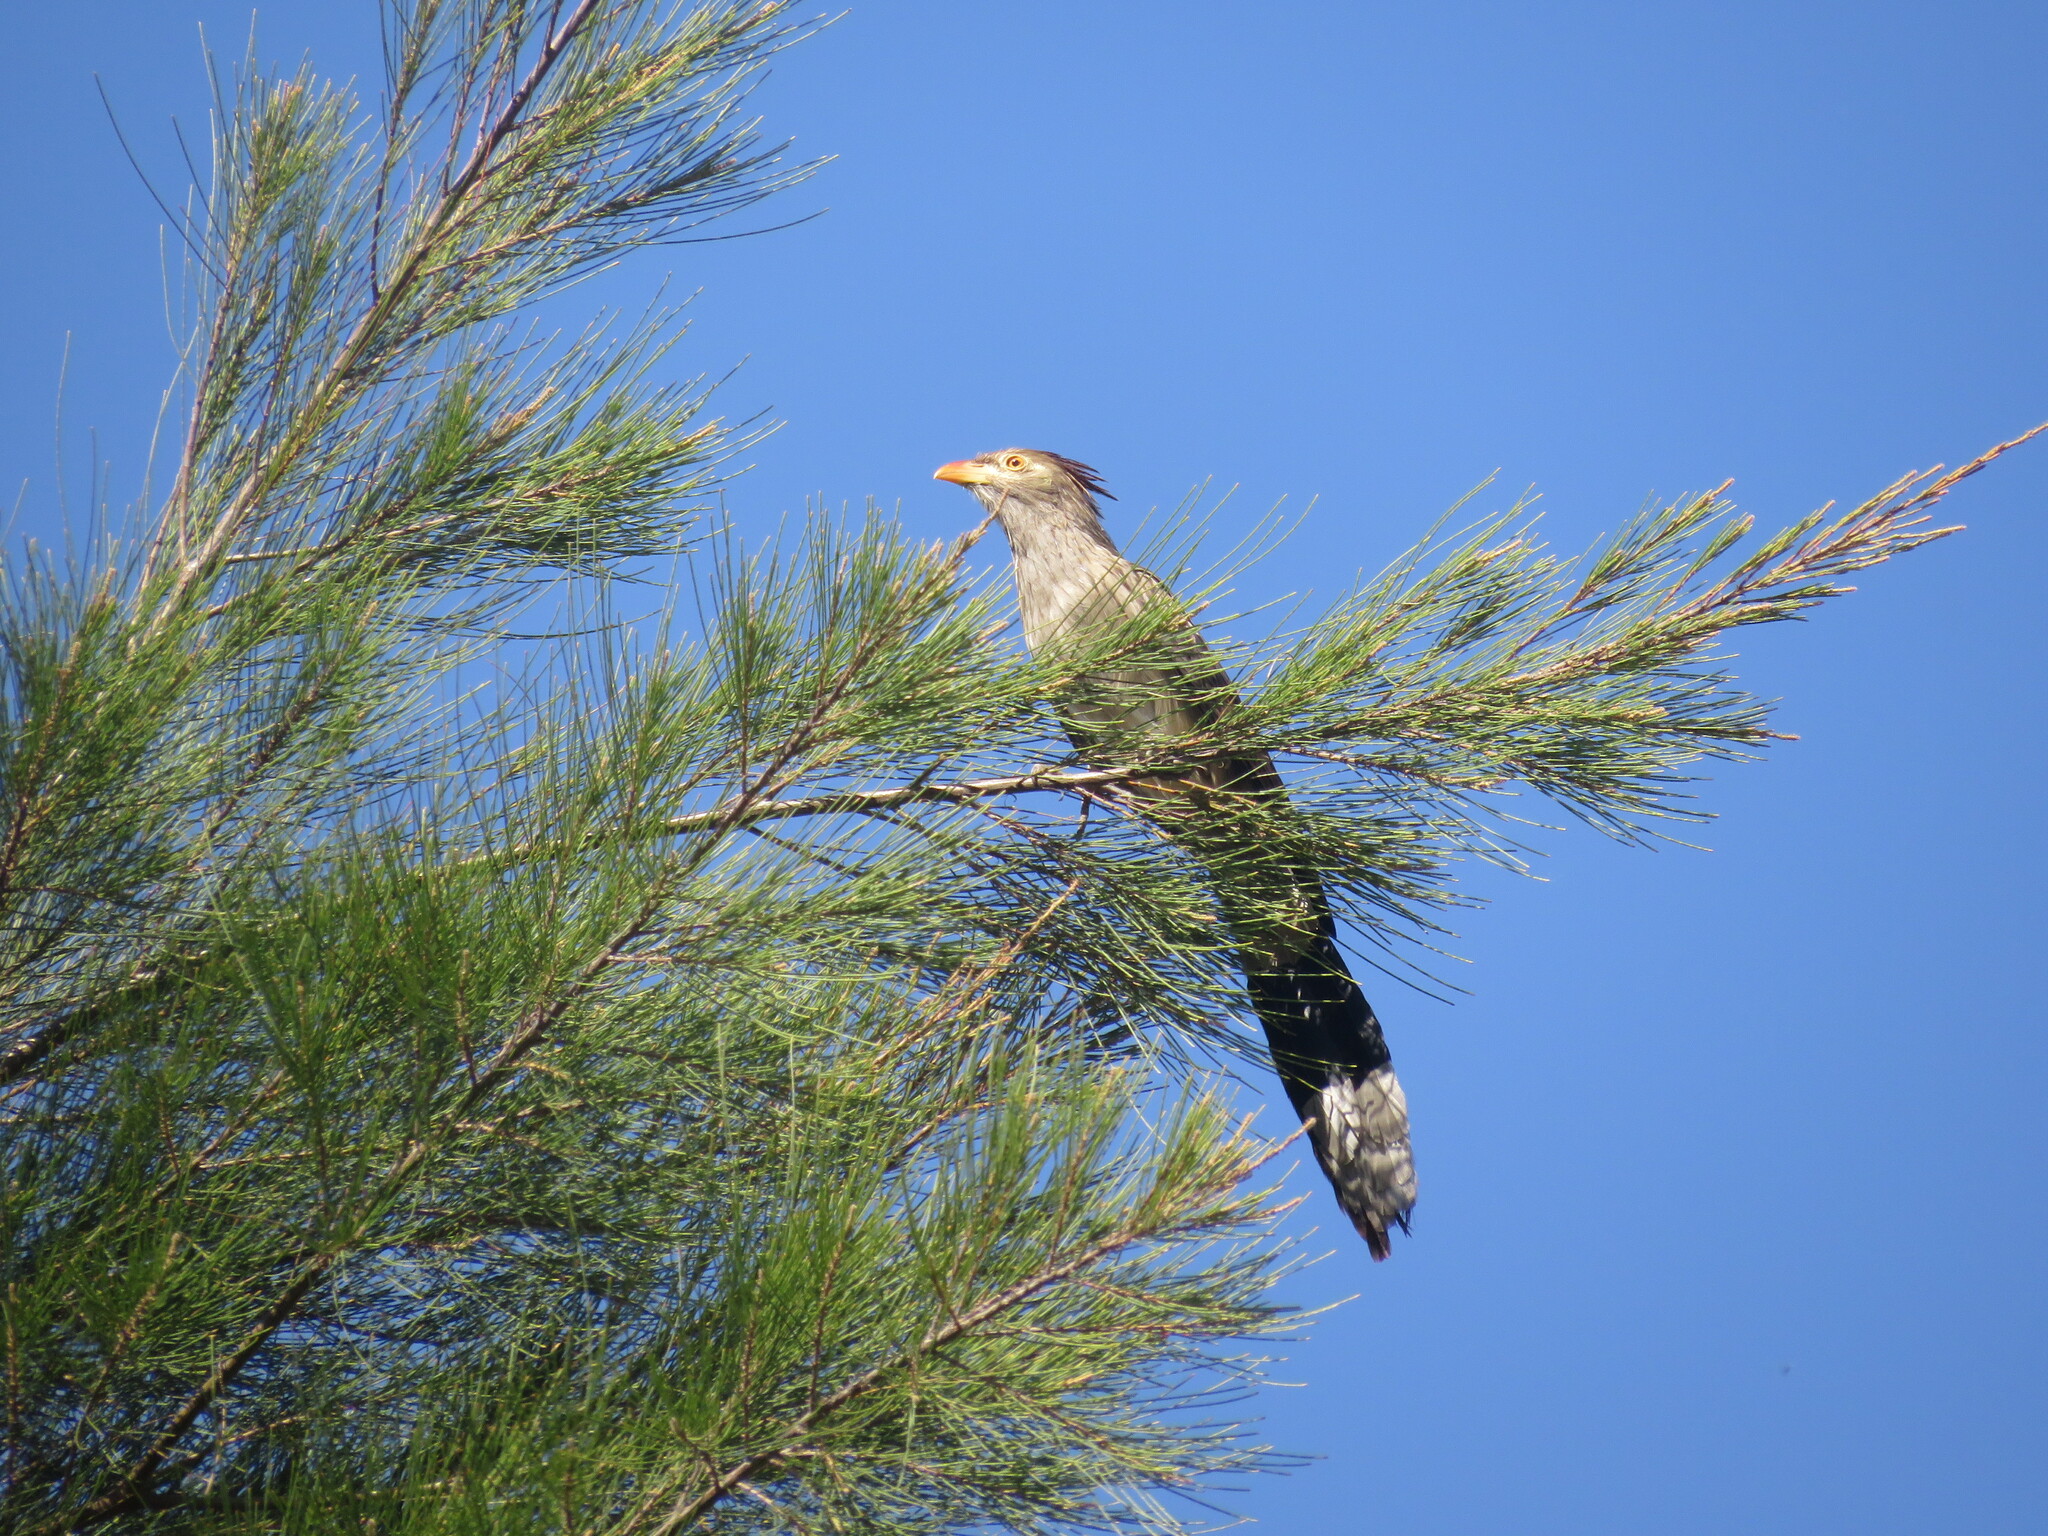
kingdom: Animalia
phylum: Chordata
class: Aves
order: Cuculiformes
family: Cuculidae
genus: Guira
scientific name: Guira guira
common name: Guira cuckoo
